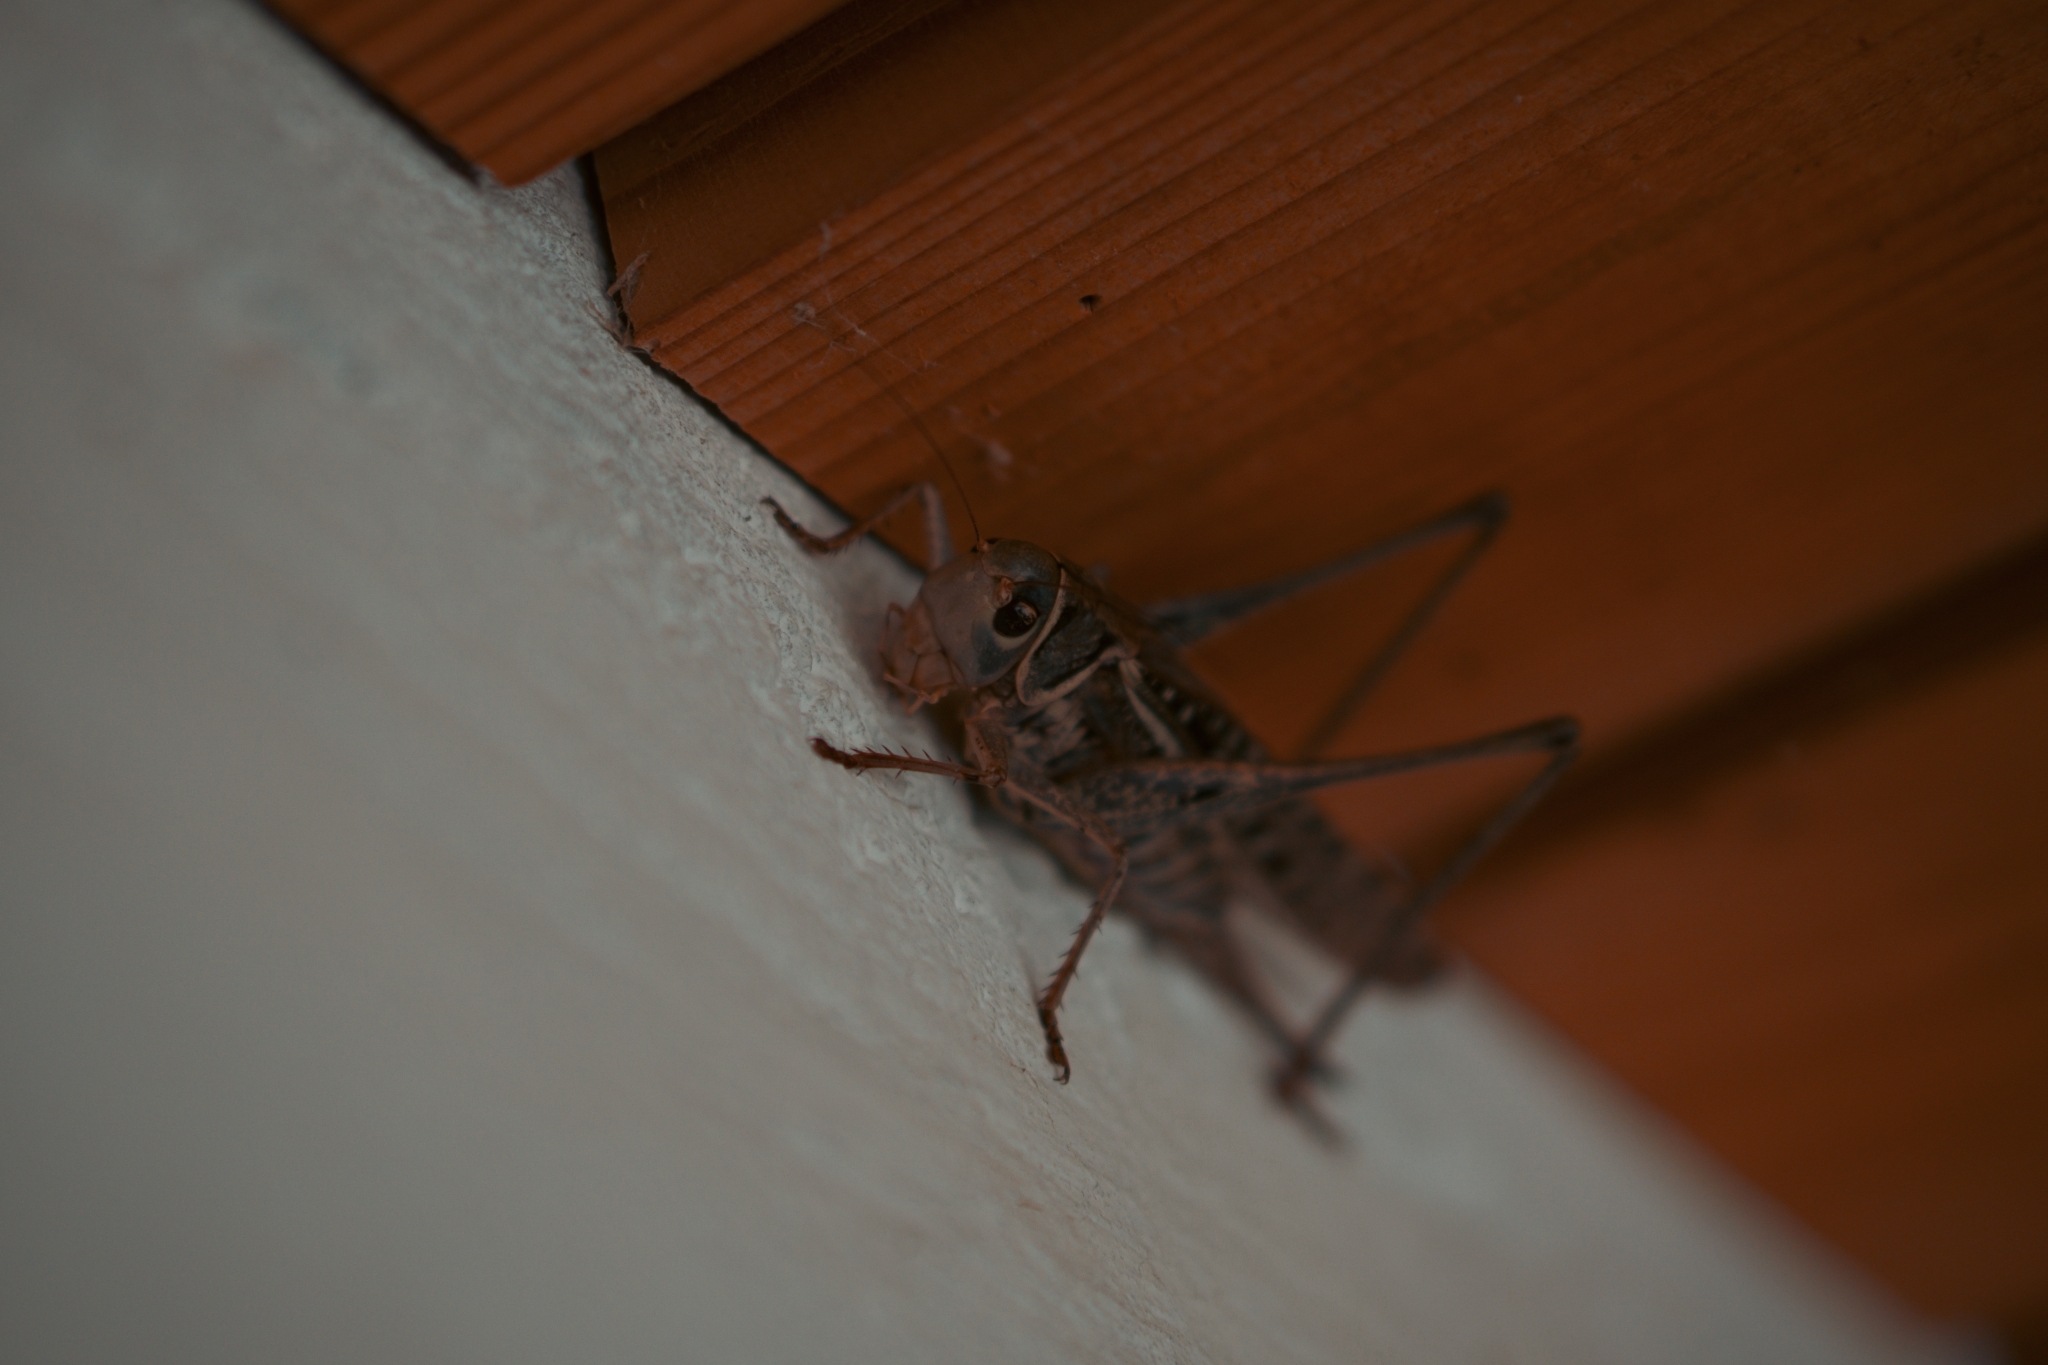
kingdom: Animalia
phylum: Arthropoda
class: Insecta
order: Orthoptera
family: Tettigoniidae
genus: Decticus
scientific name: Decticus albifrons
